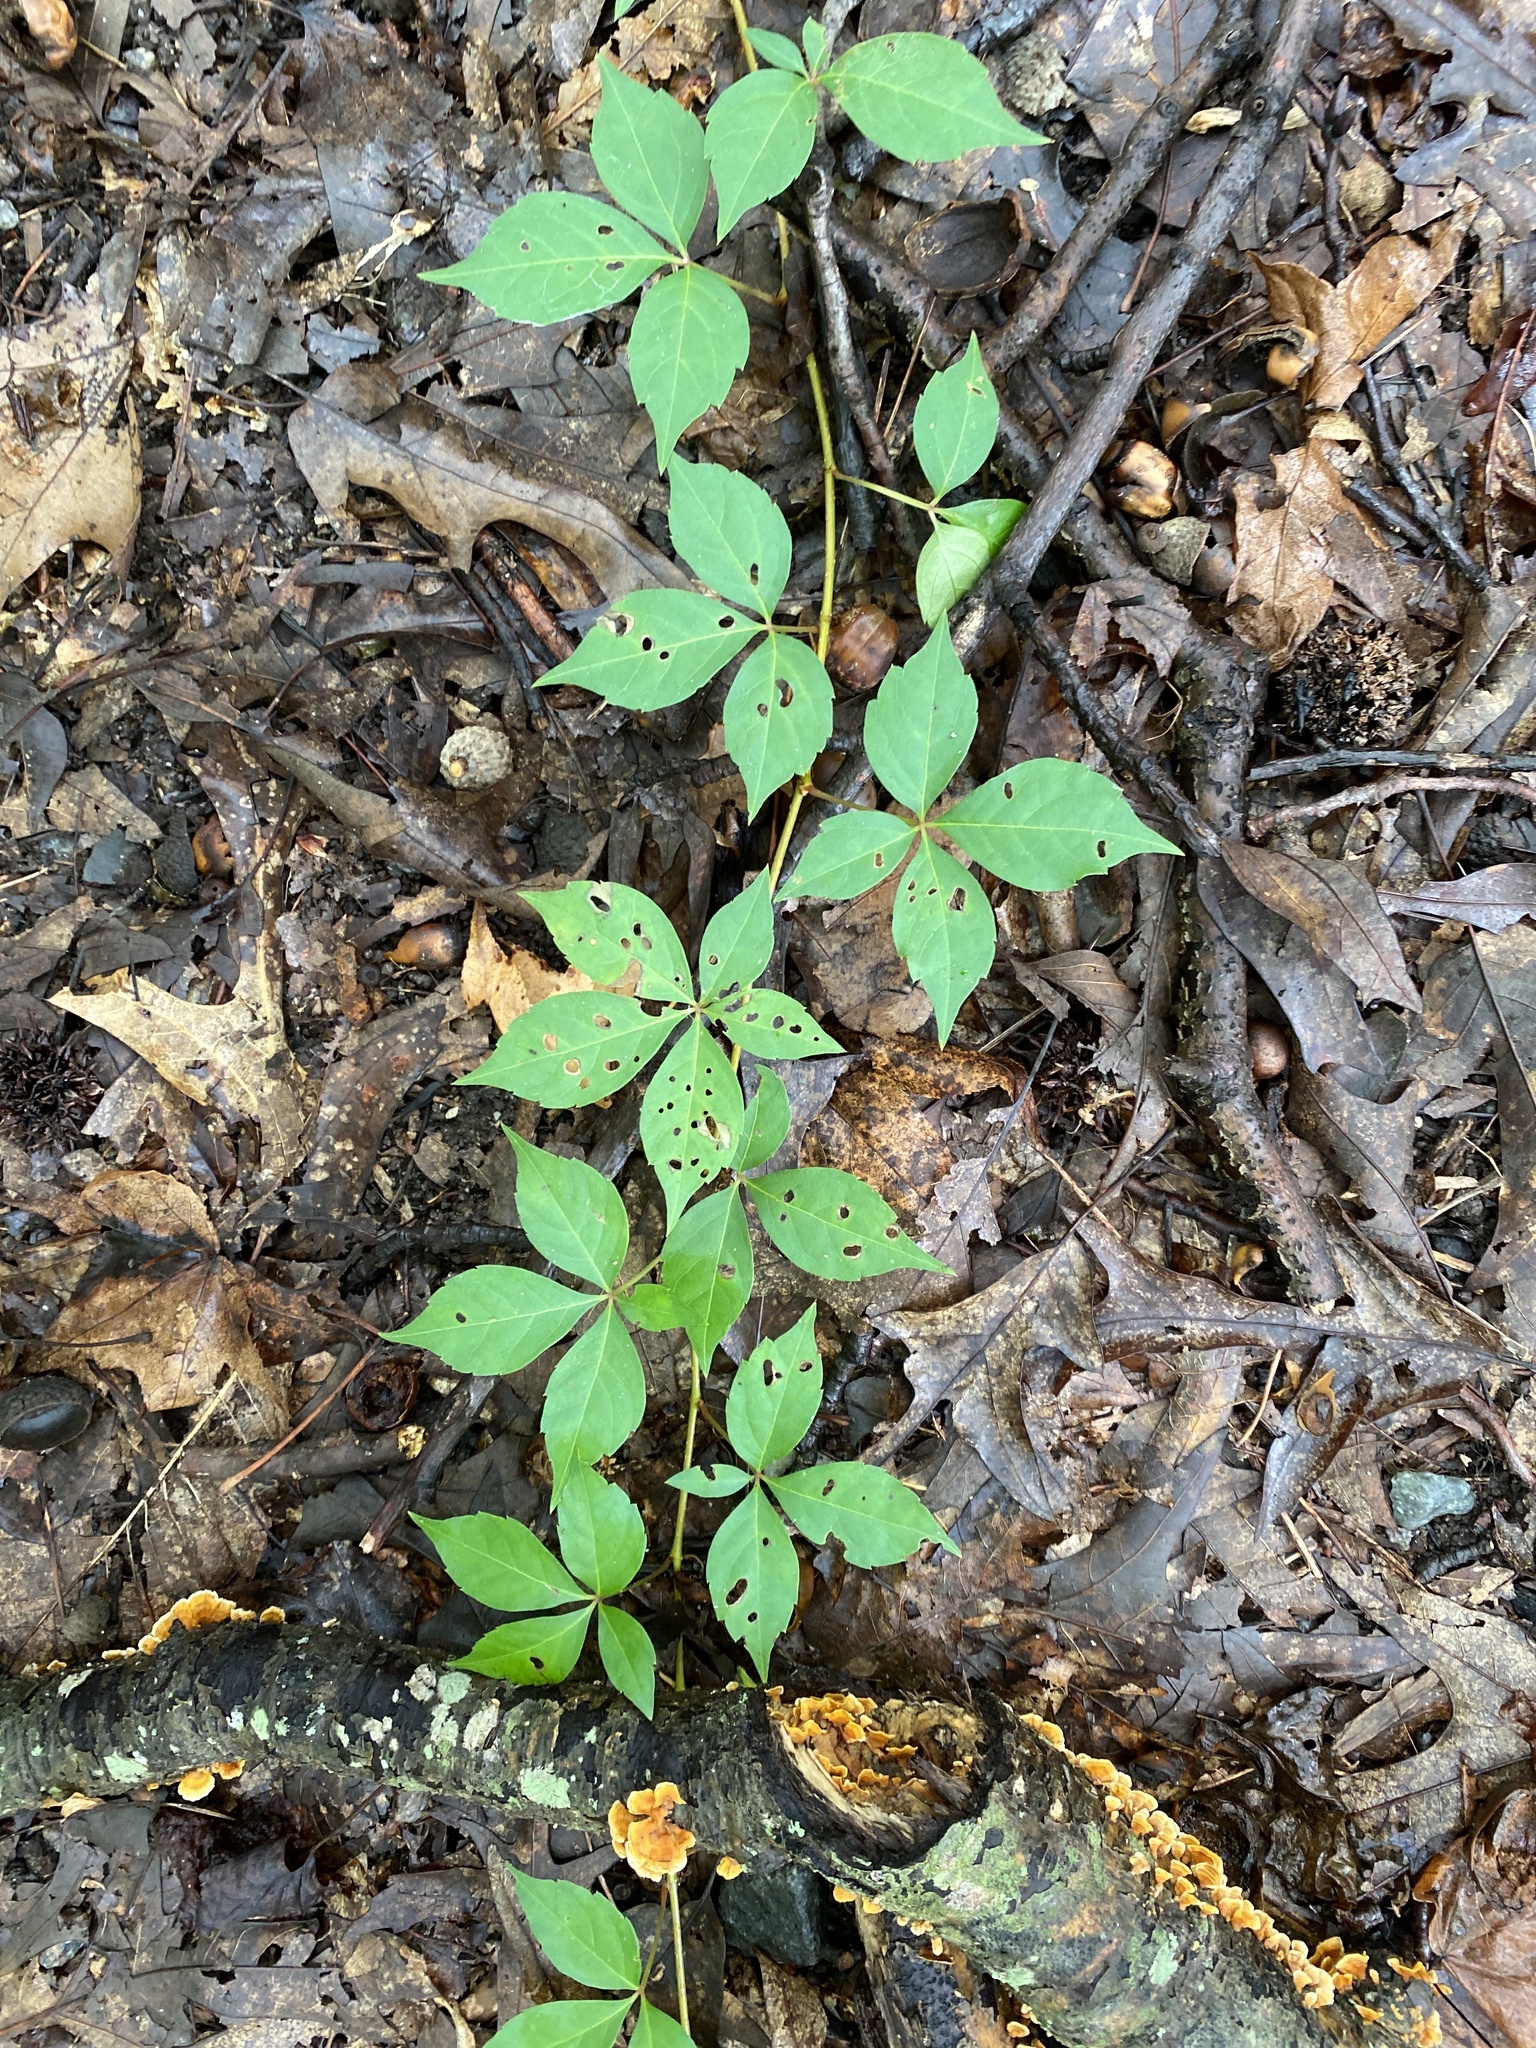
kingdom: Plantae
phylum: Tracheophyta
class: Magnoliopsida
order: Vitales
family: Vitaceae
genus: Parthenocissus
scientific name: Parthenocissus quinquefolia
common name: Virginia-creeper
